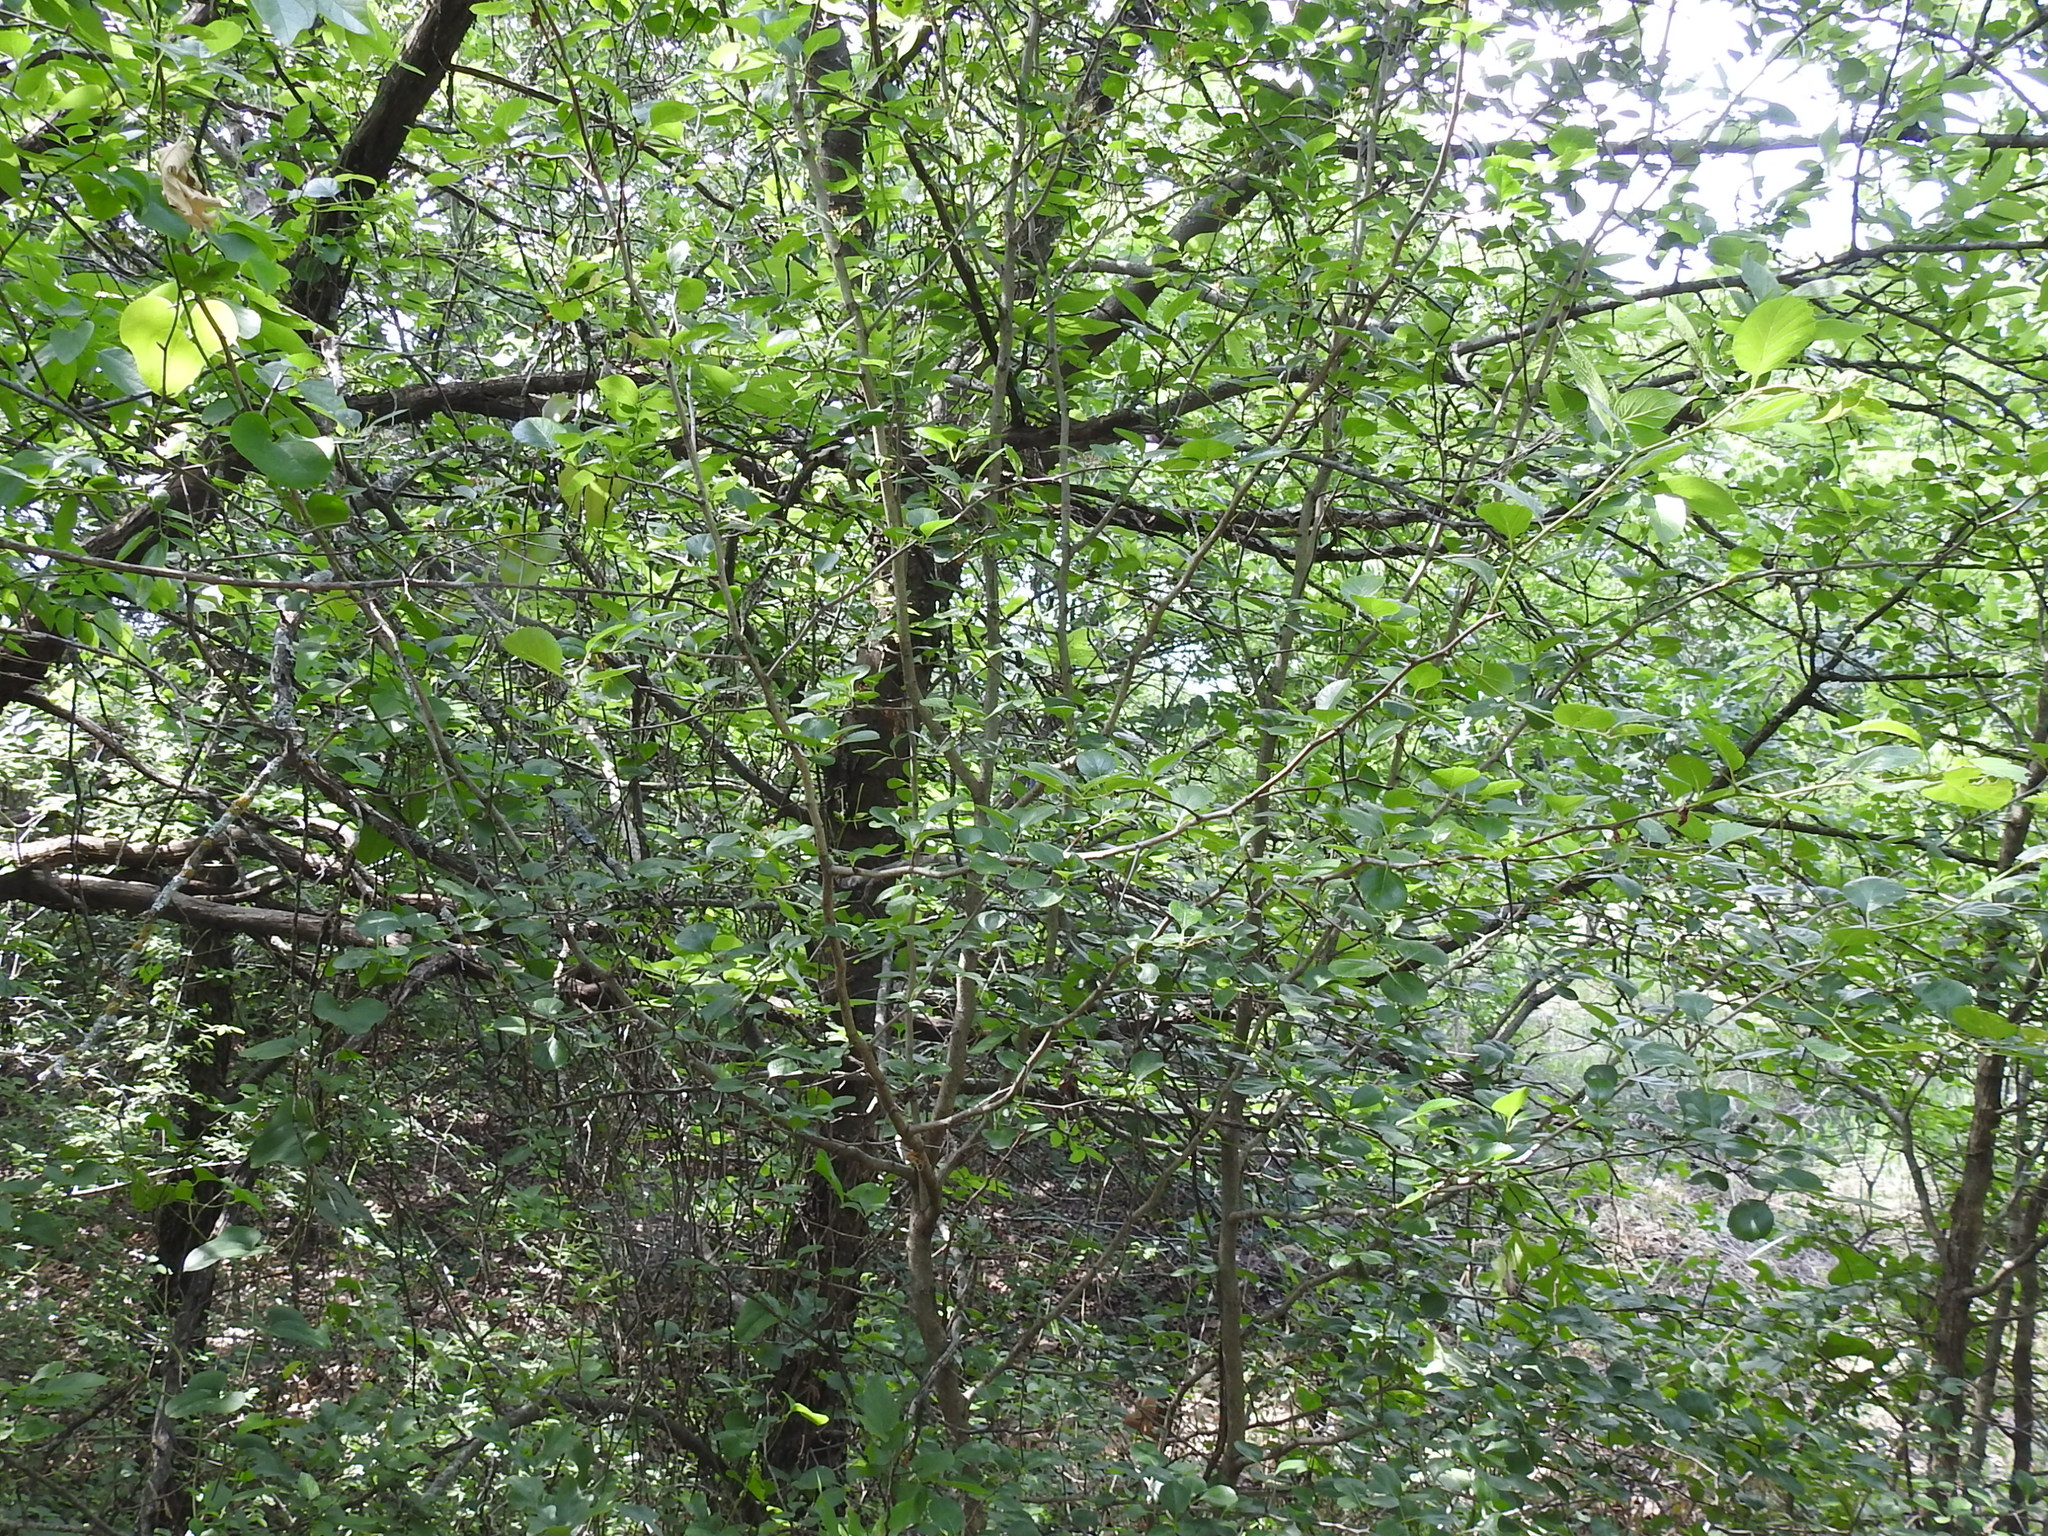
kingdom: Plantae
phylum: Tracheophyta
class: Magnoliopsida
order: Rosales
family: Rosaceae
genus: Crataegus
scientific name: Crataegus reverchonii
